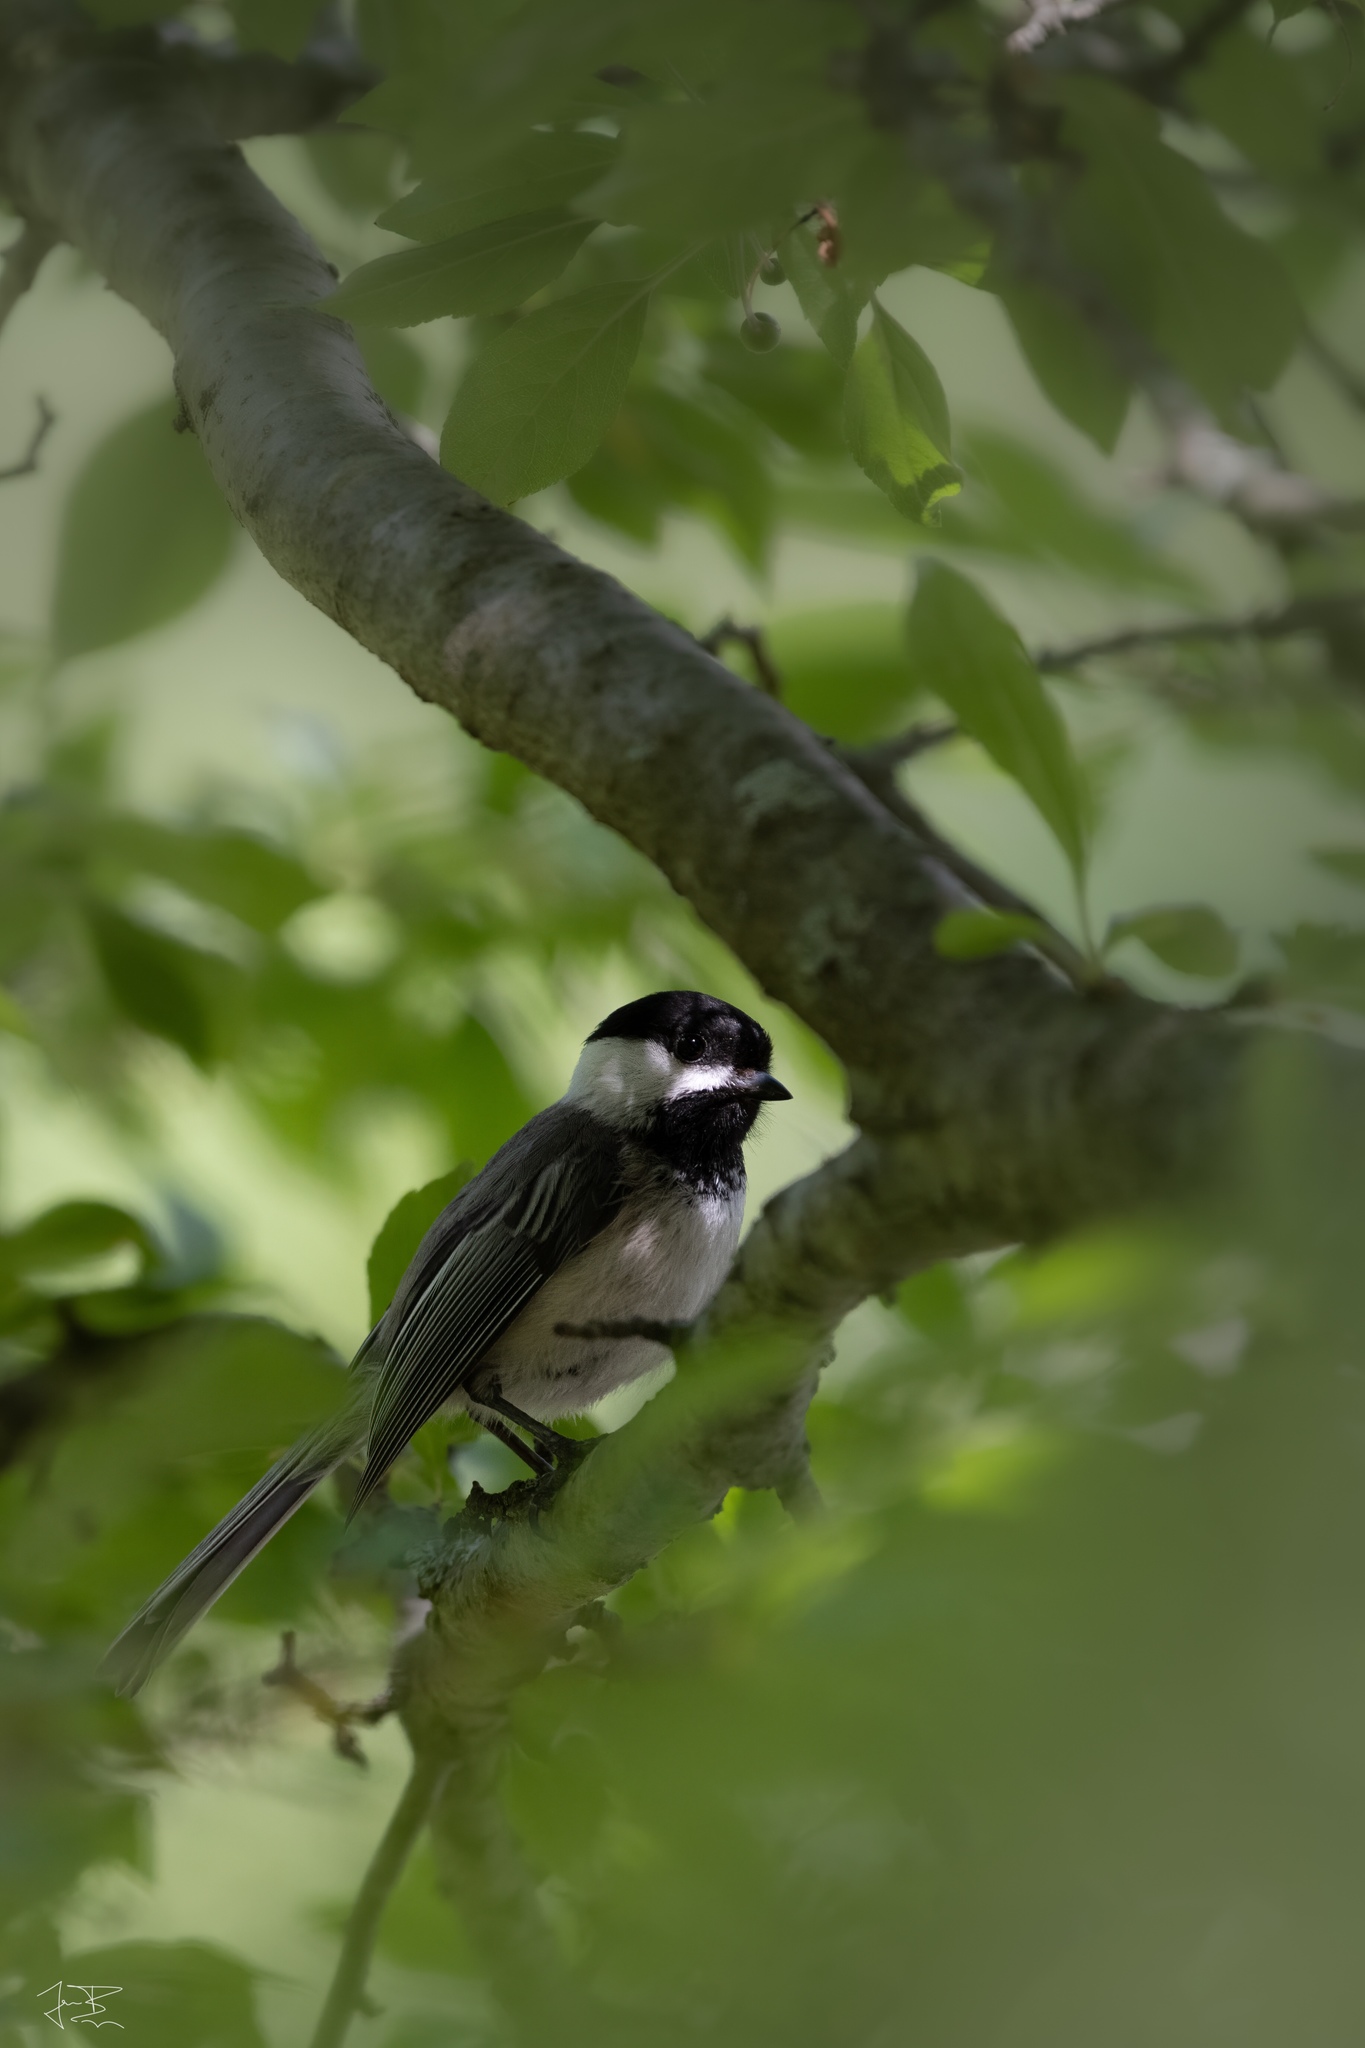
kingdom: Animalia
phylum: Chordata
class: Aves
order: Passeriformes
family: Paridae
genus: Poecile
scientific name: Poecile atricapillus
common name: Black-capped chickadee
